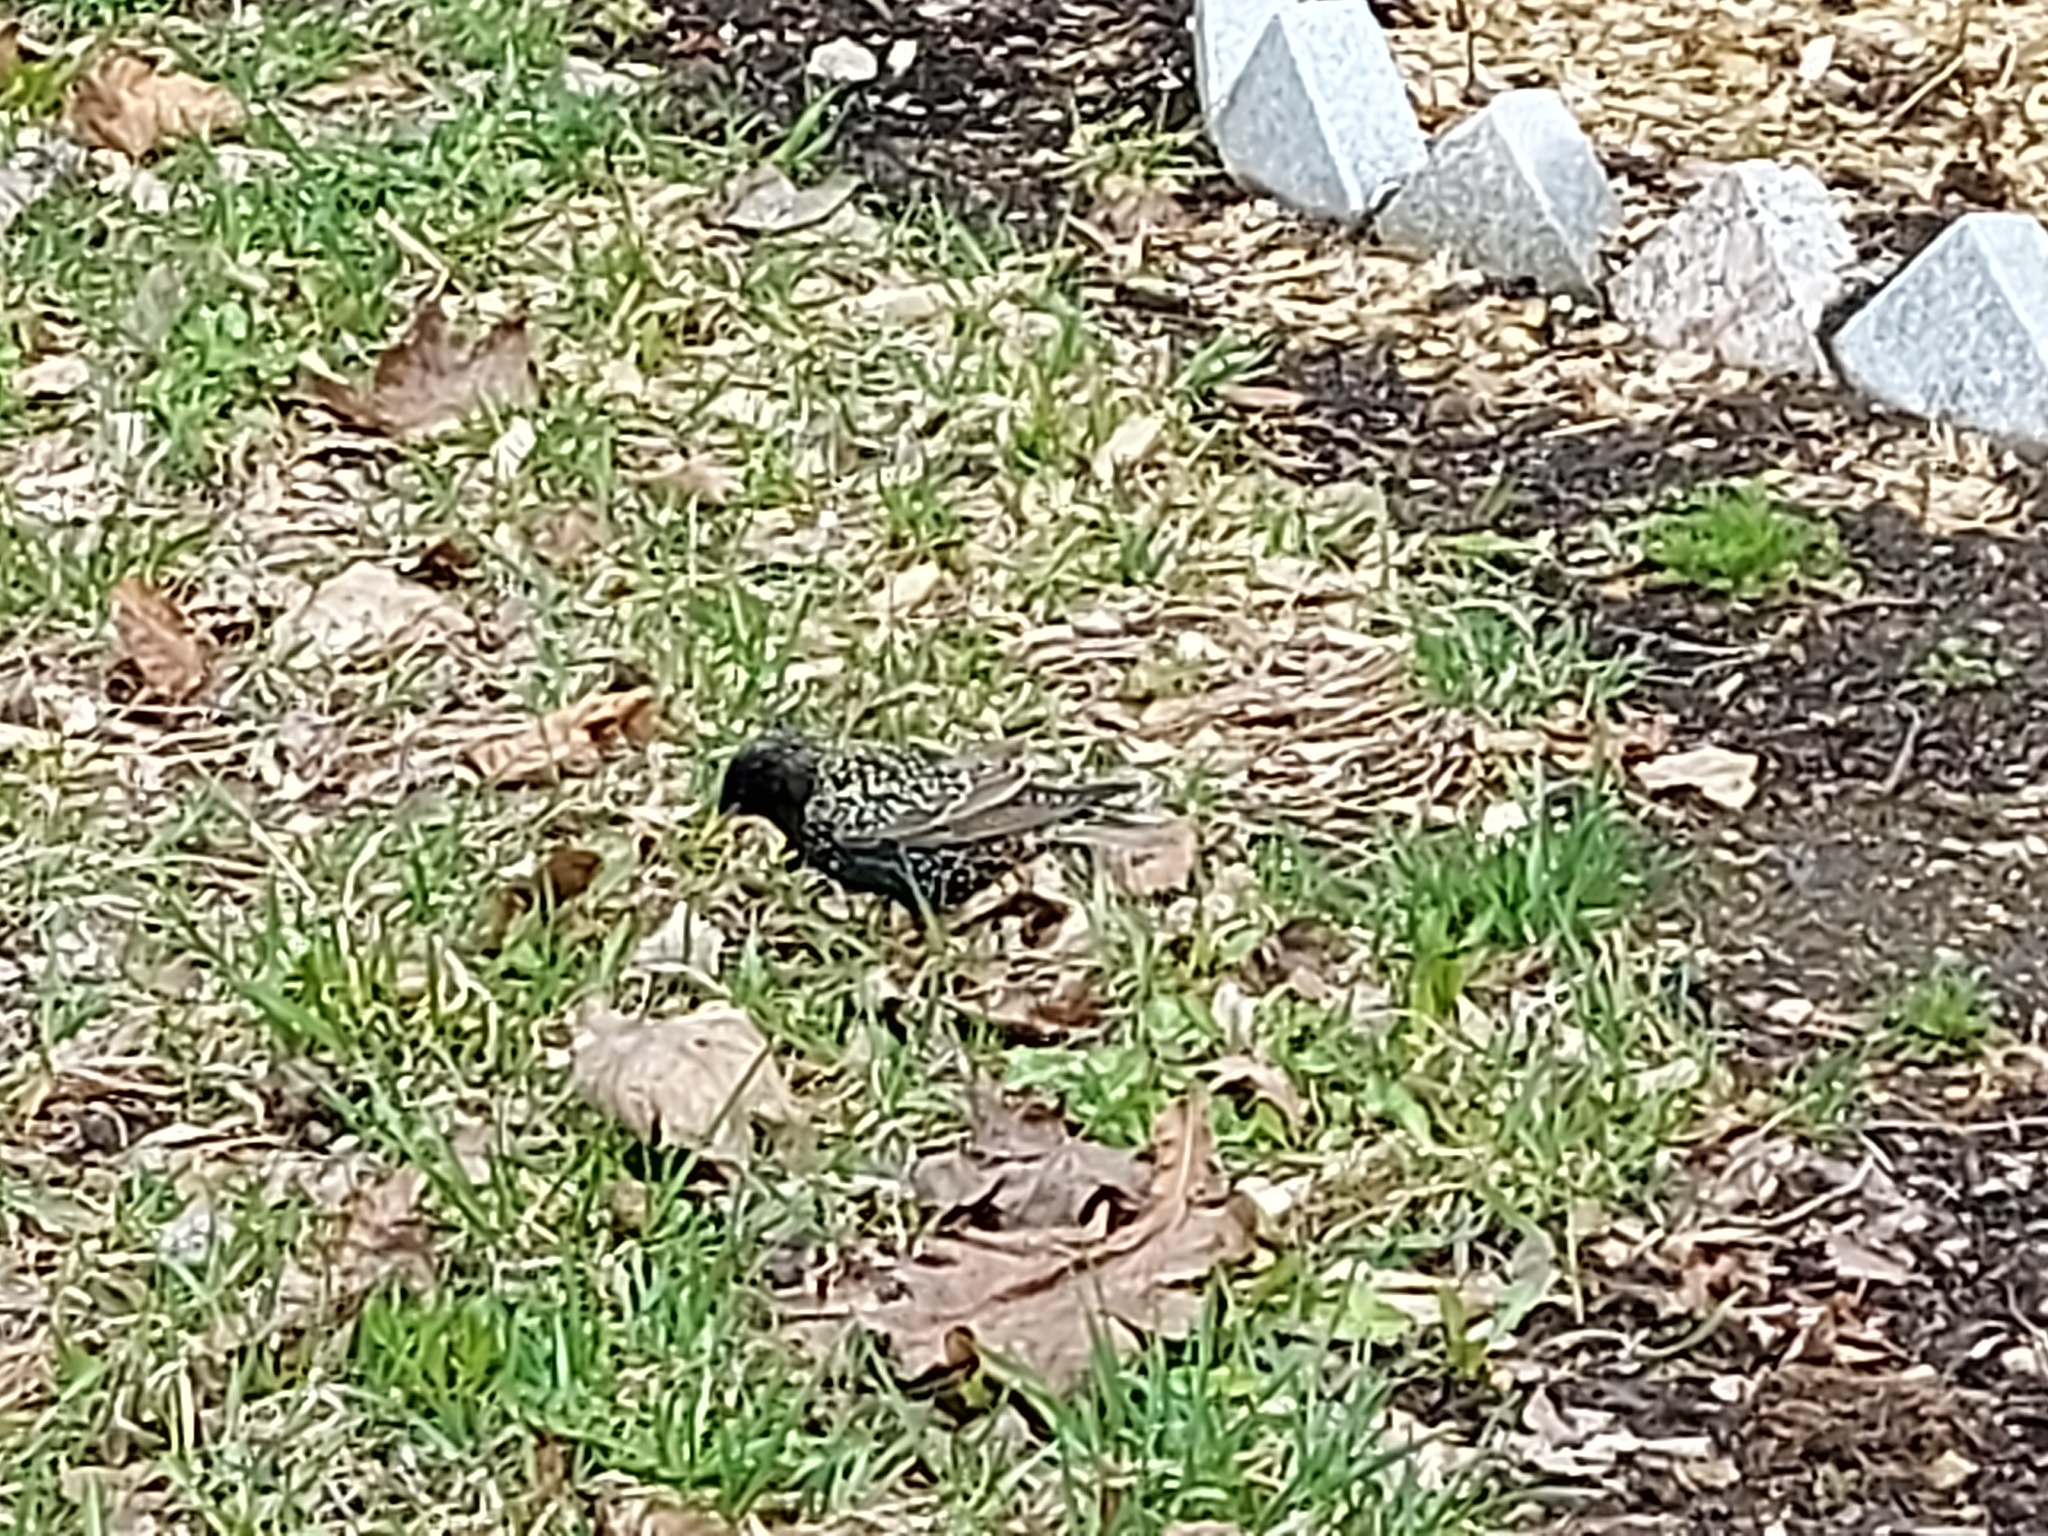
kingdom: Animalia
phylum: Chordata
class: Aves
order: Passeriformes
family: Sturnidae
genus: Sturnus
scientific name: Sturnus vulgaris
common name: Common starling
